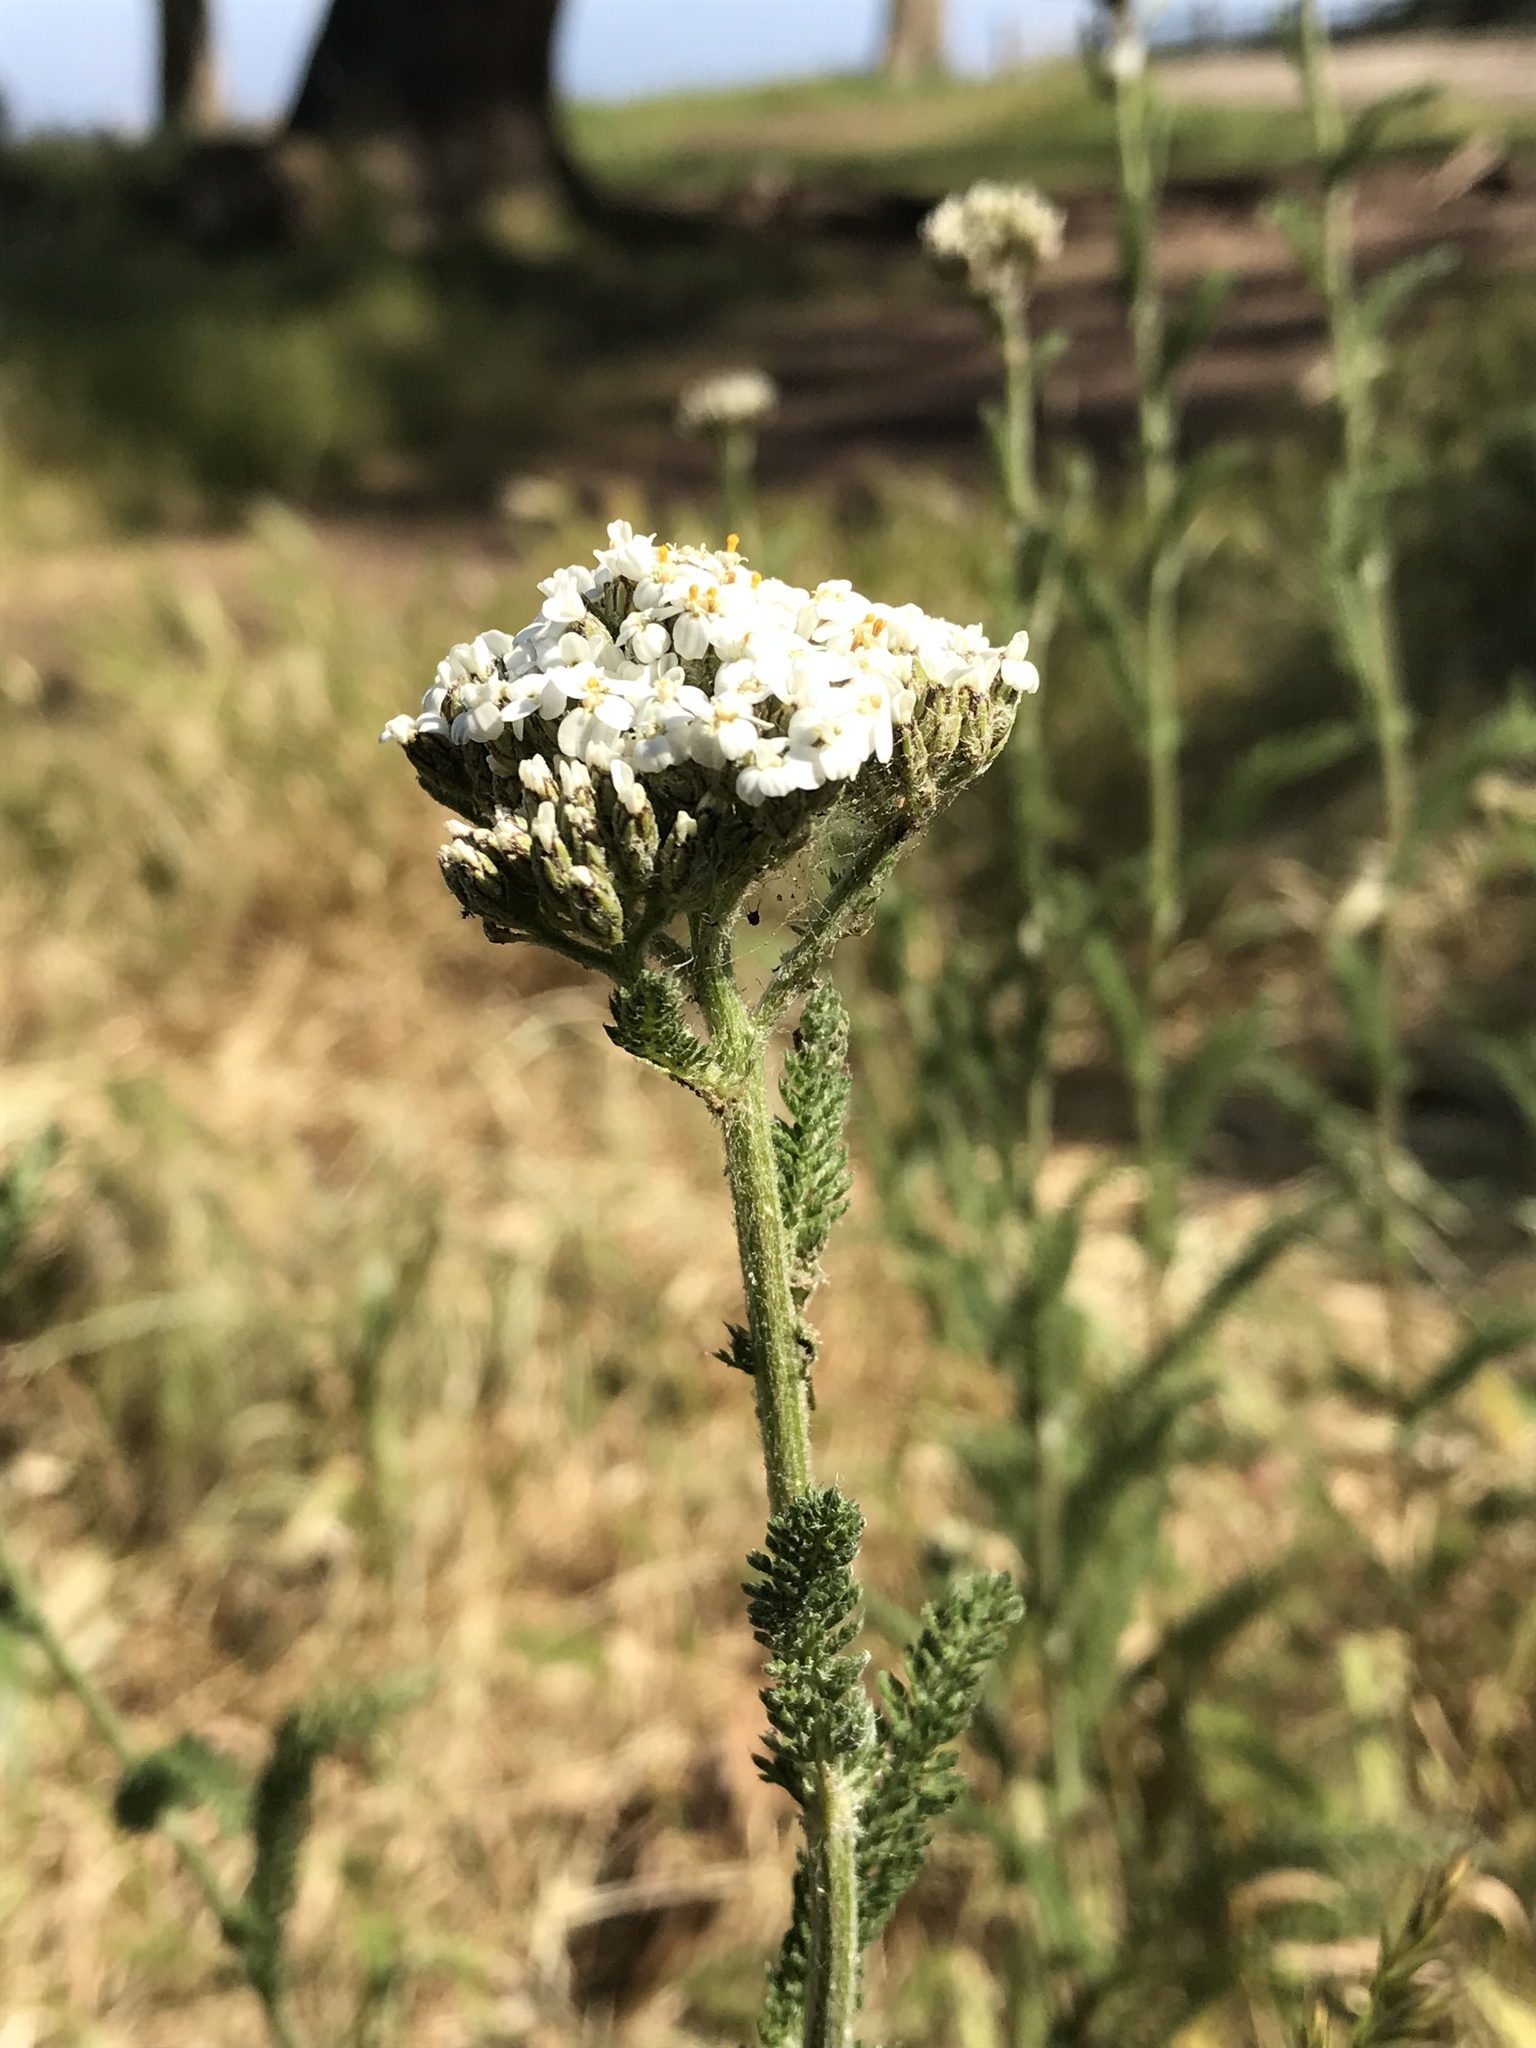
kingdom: Plantae
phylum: Tracheophyta
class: Magnoliopsida
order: Asterales
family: Asteraceae
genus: Achillea
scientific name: Achillea millefolium
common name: Yarrow
